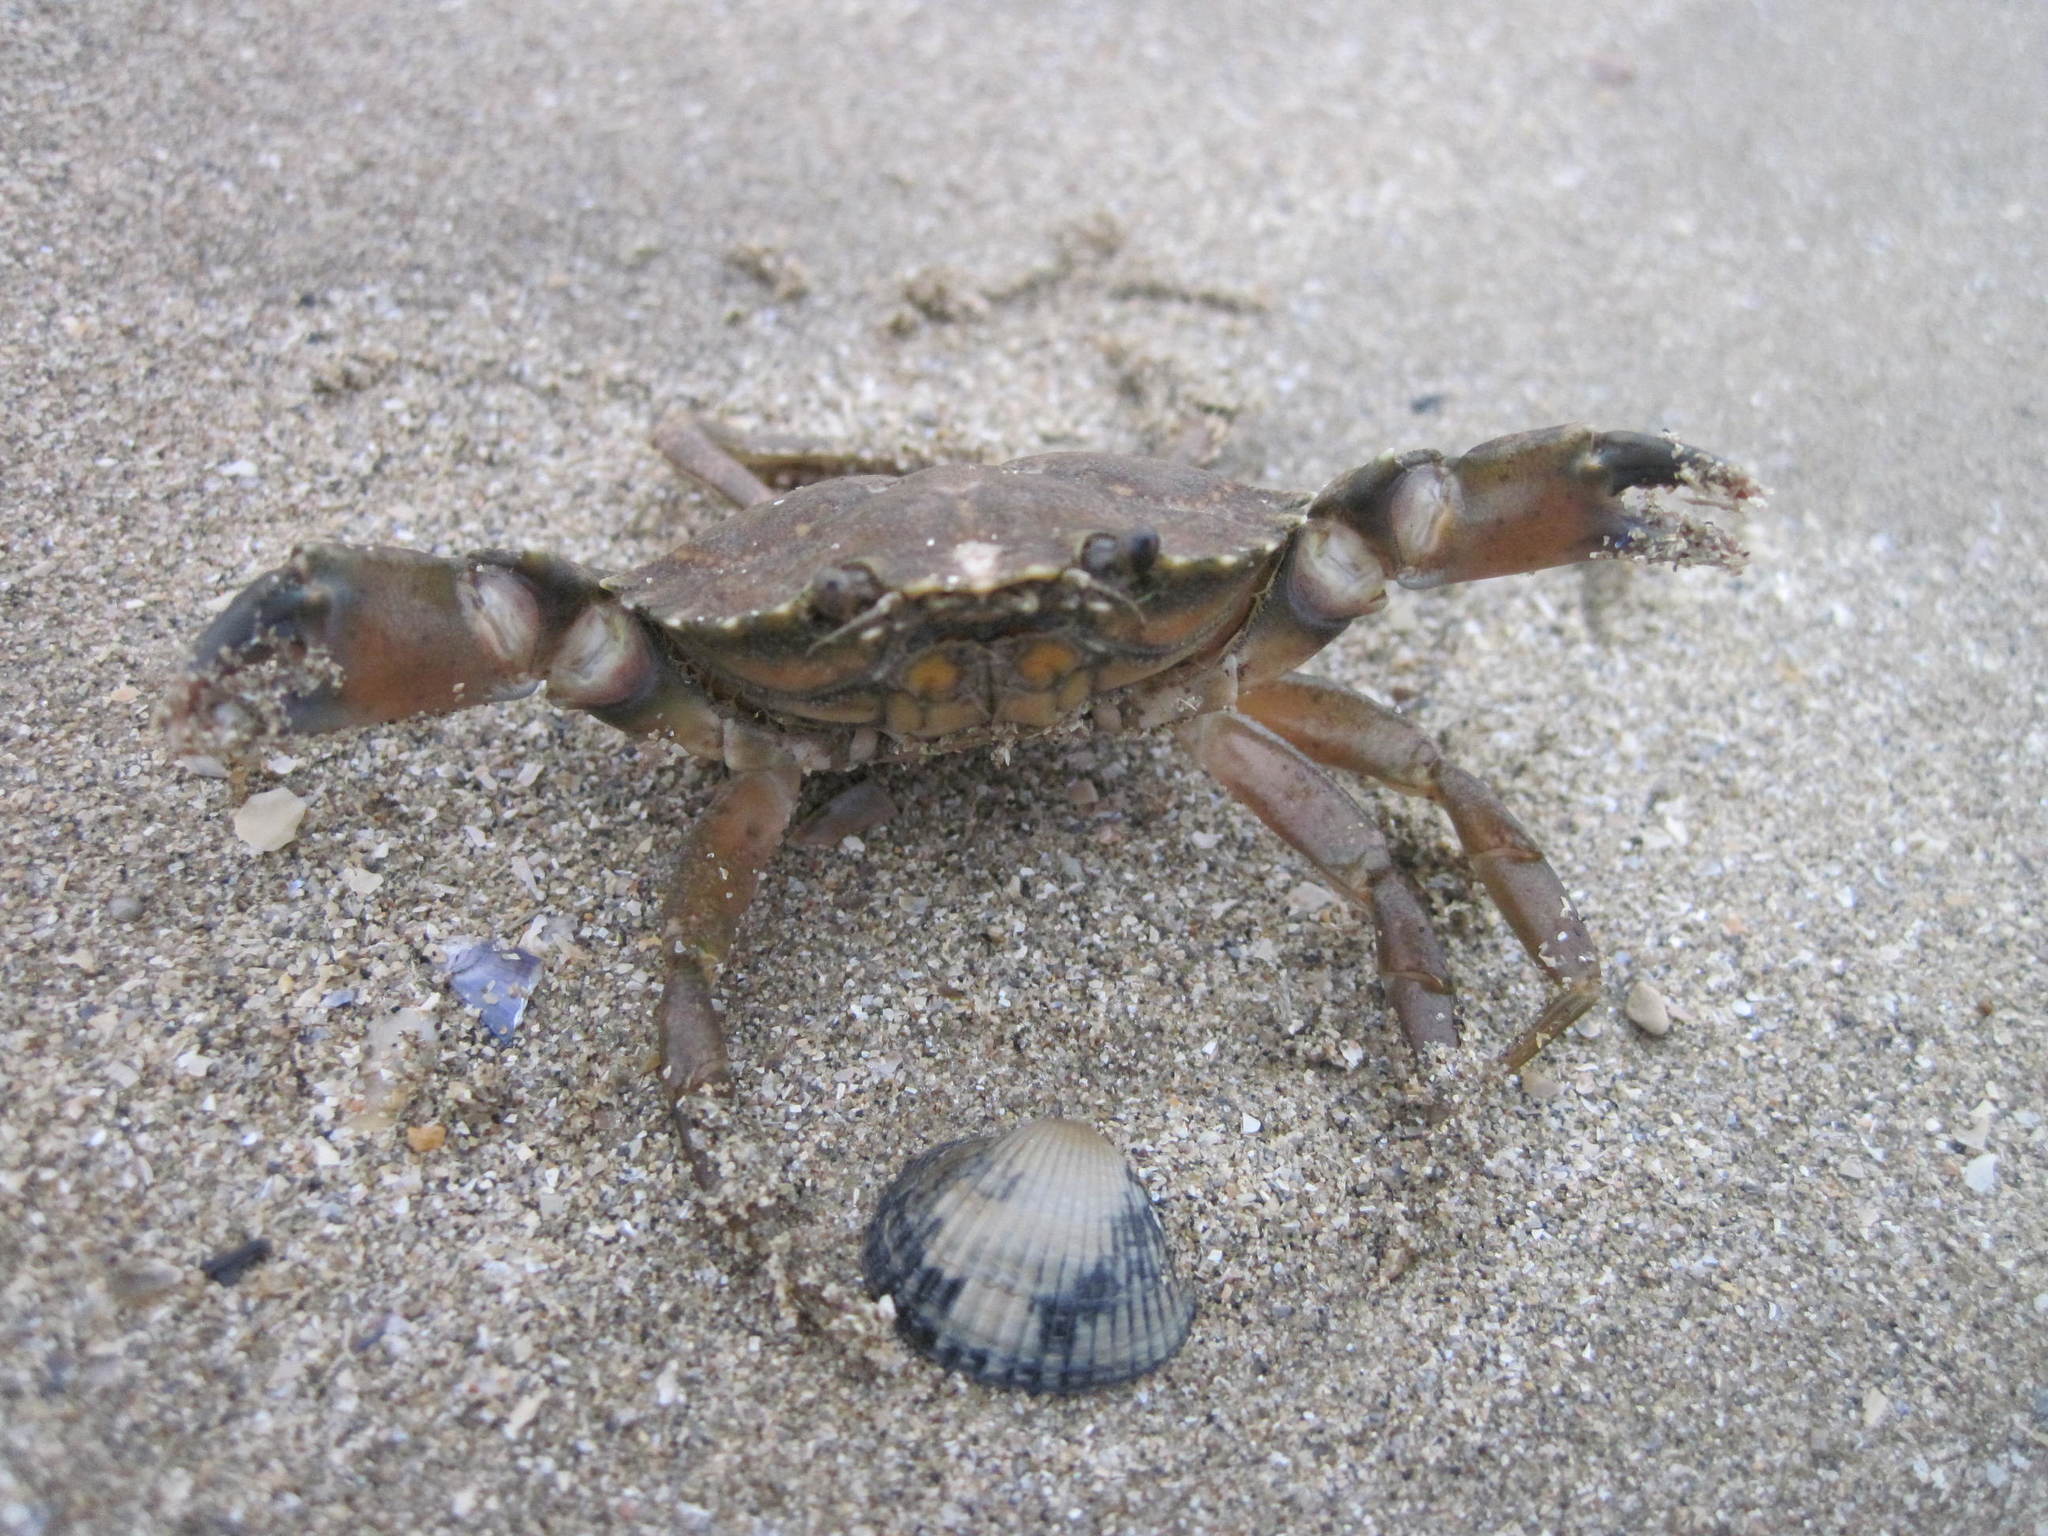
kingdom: Animalia
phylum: Arthropoda
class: Malacostraca
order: Decapoda
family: Carcinidae
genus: Carcinus
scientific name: Carcinus maenas
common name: European green crab
